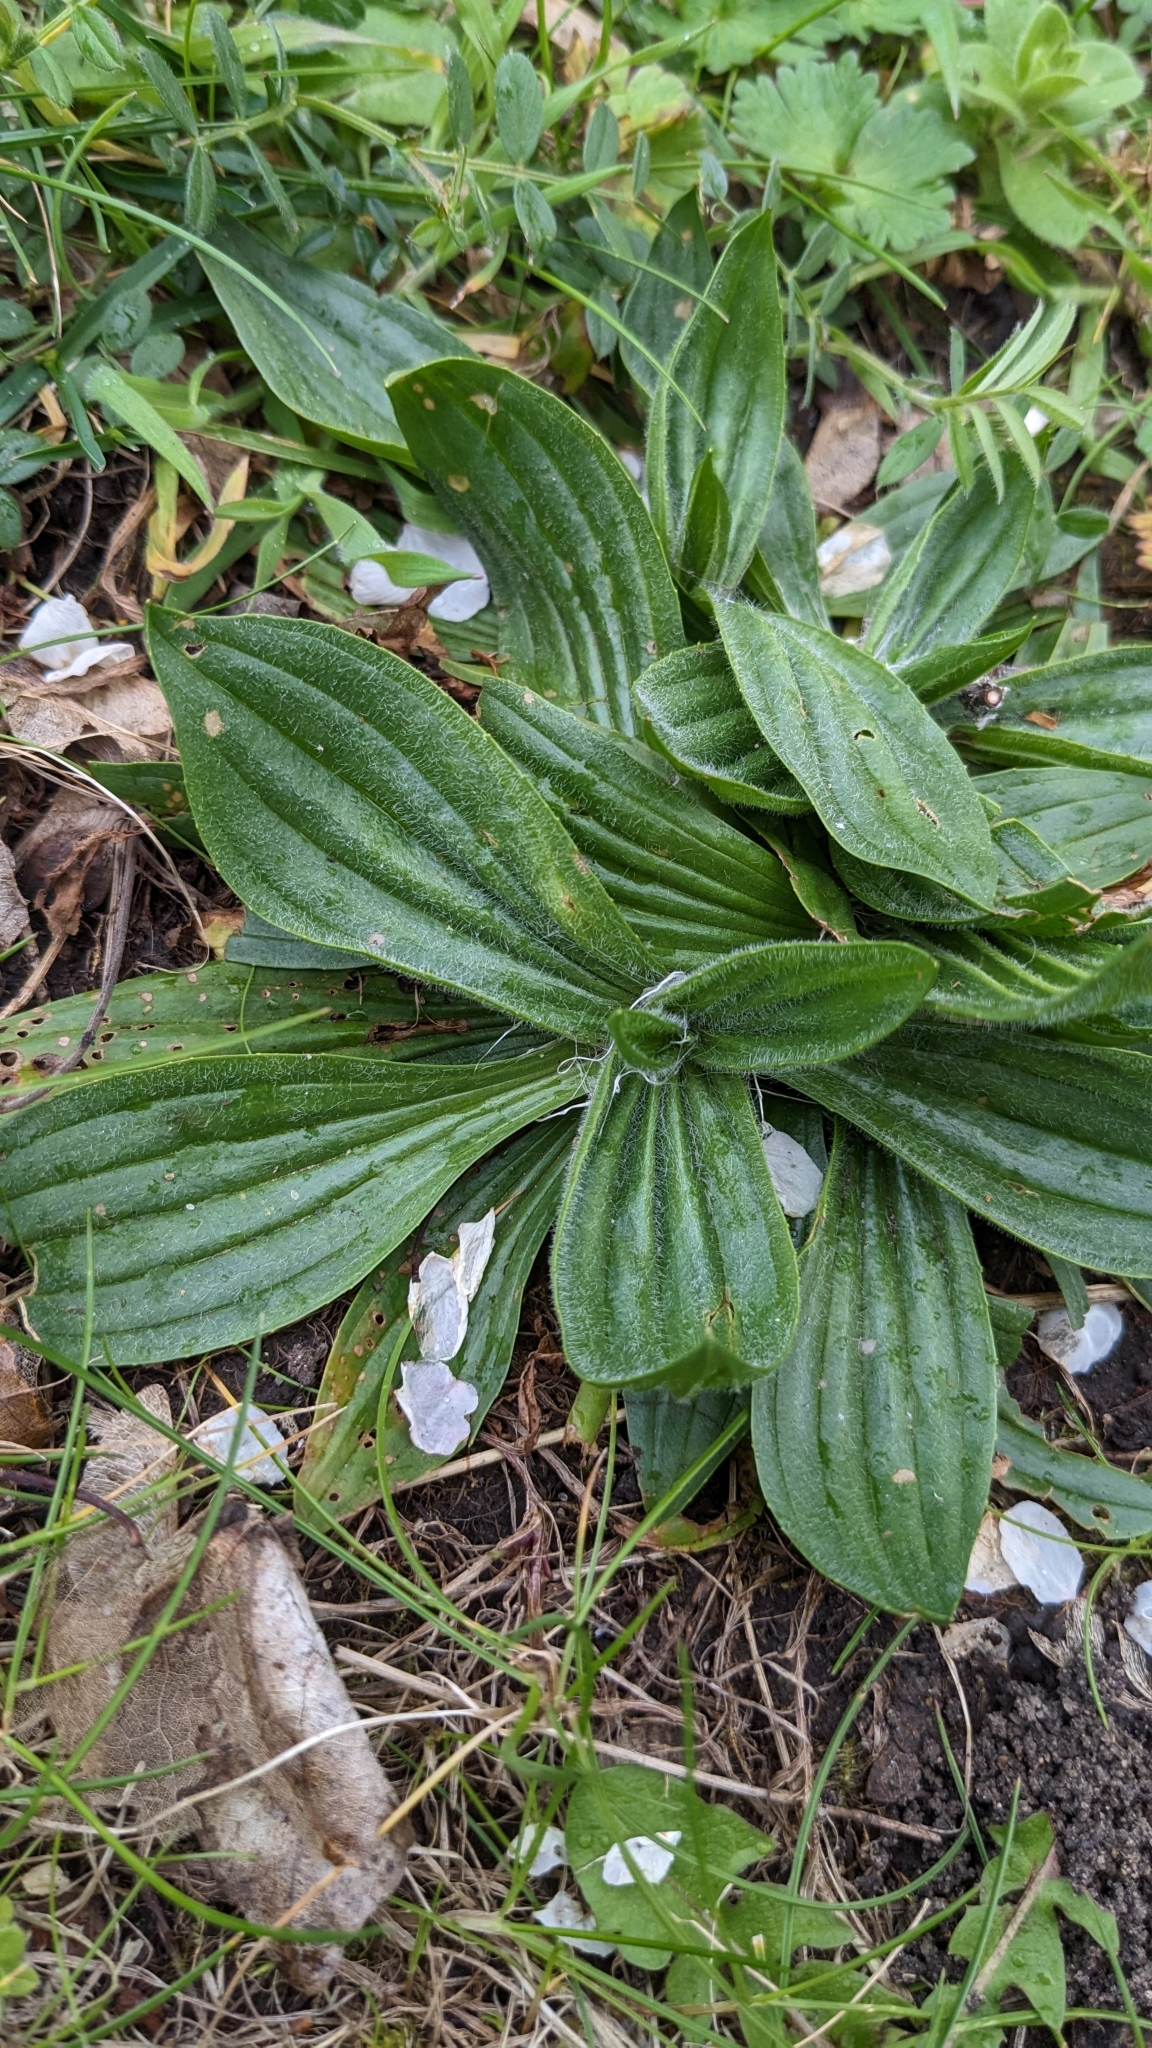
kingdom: Plantae
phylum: Tracheophyta
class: Magnoliopsida
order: Lamiales
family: Plantaginaceae
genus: Plantago
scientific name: Plantago lanceolata
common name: Ribwort plantain
